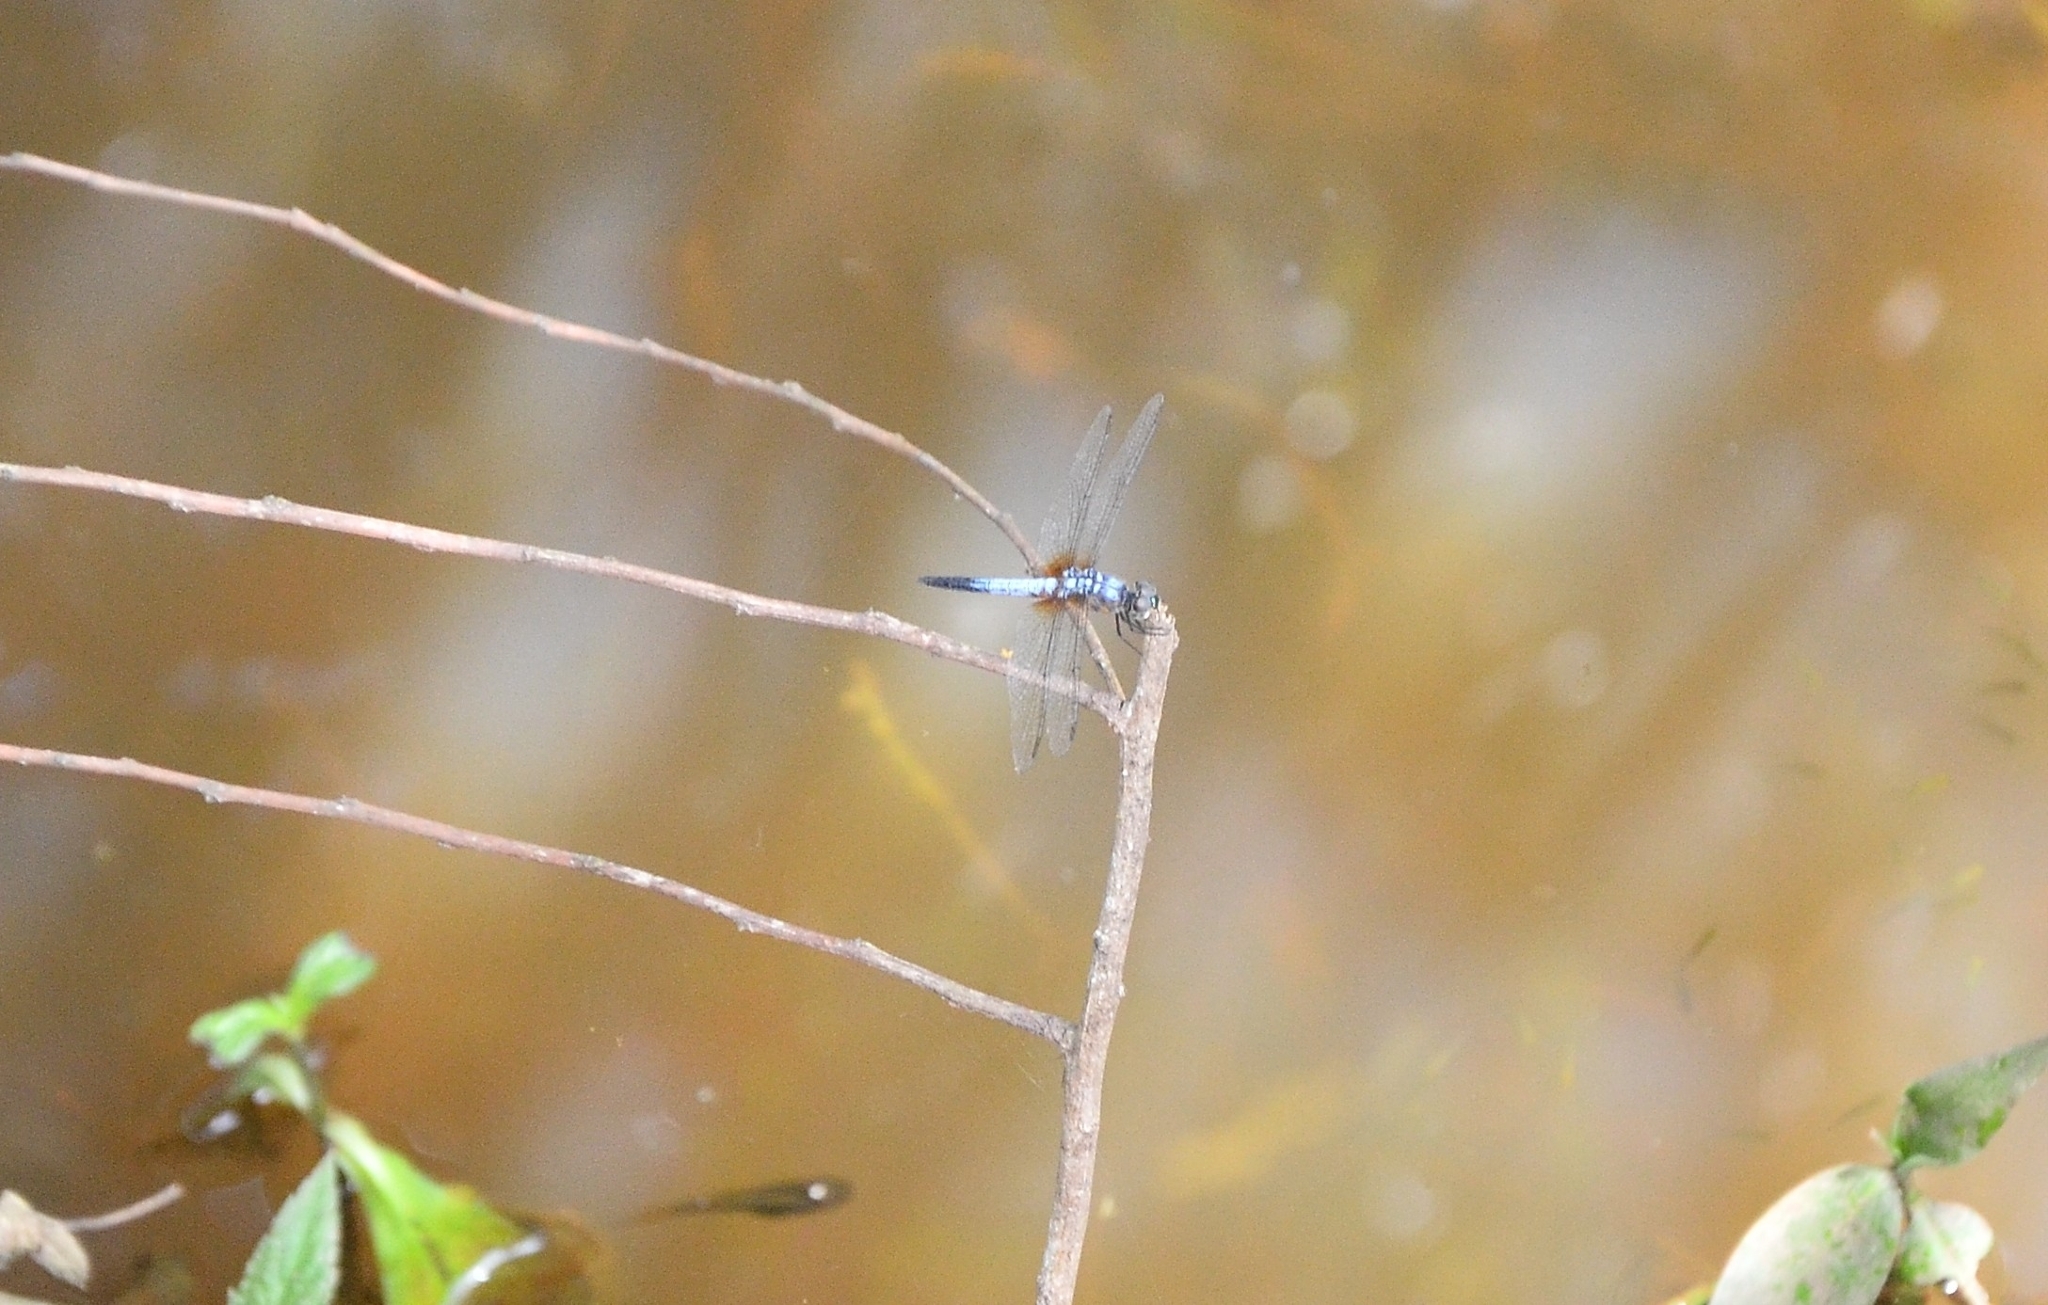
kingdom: Animalia
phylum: Arthropoda
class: Insecta
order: Odonata
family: Libellulidae
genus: Brachydiplax
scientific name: Brachydiplax chalybea
